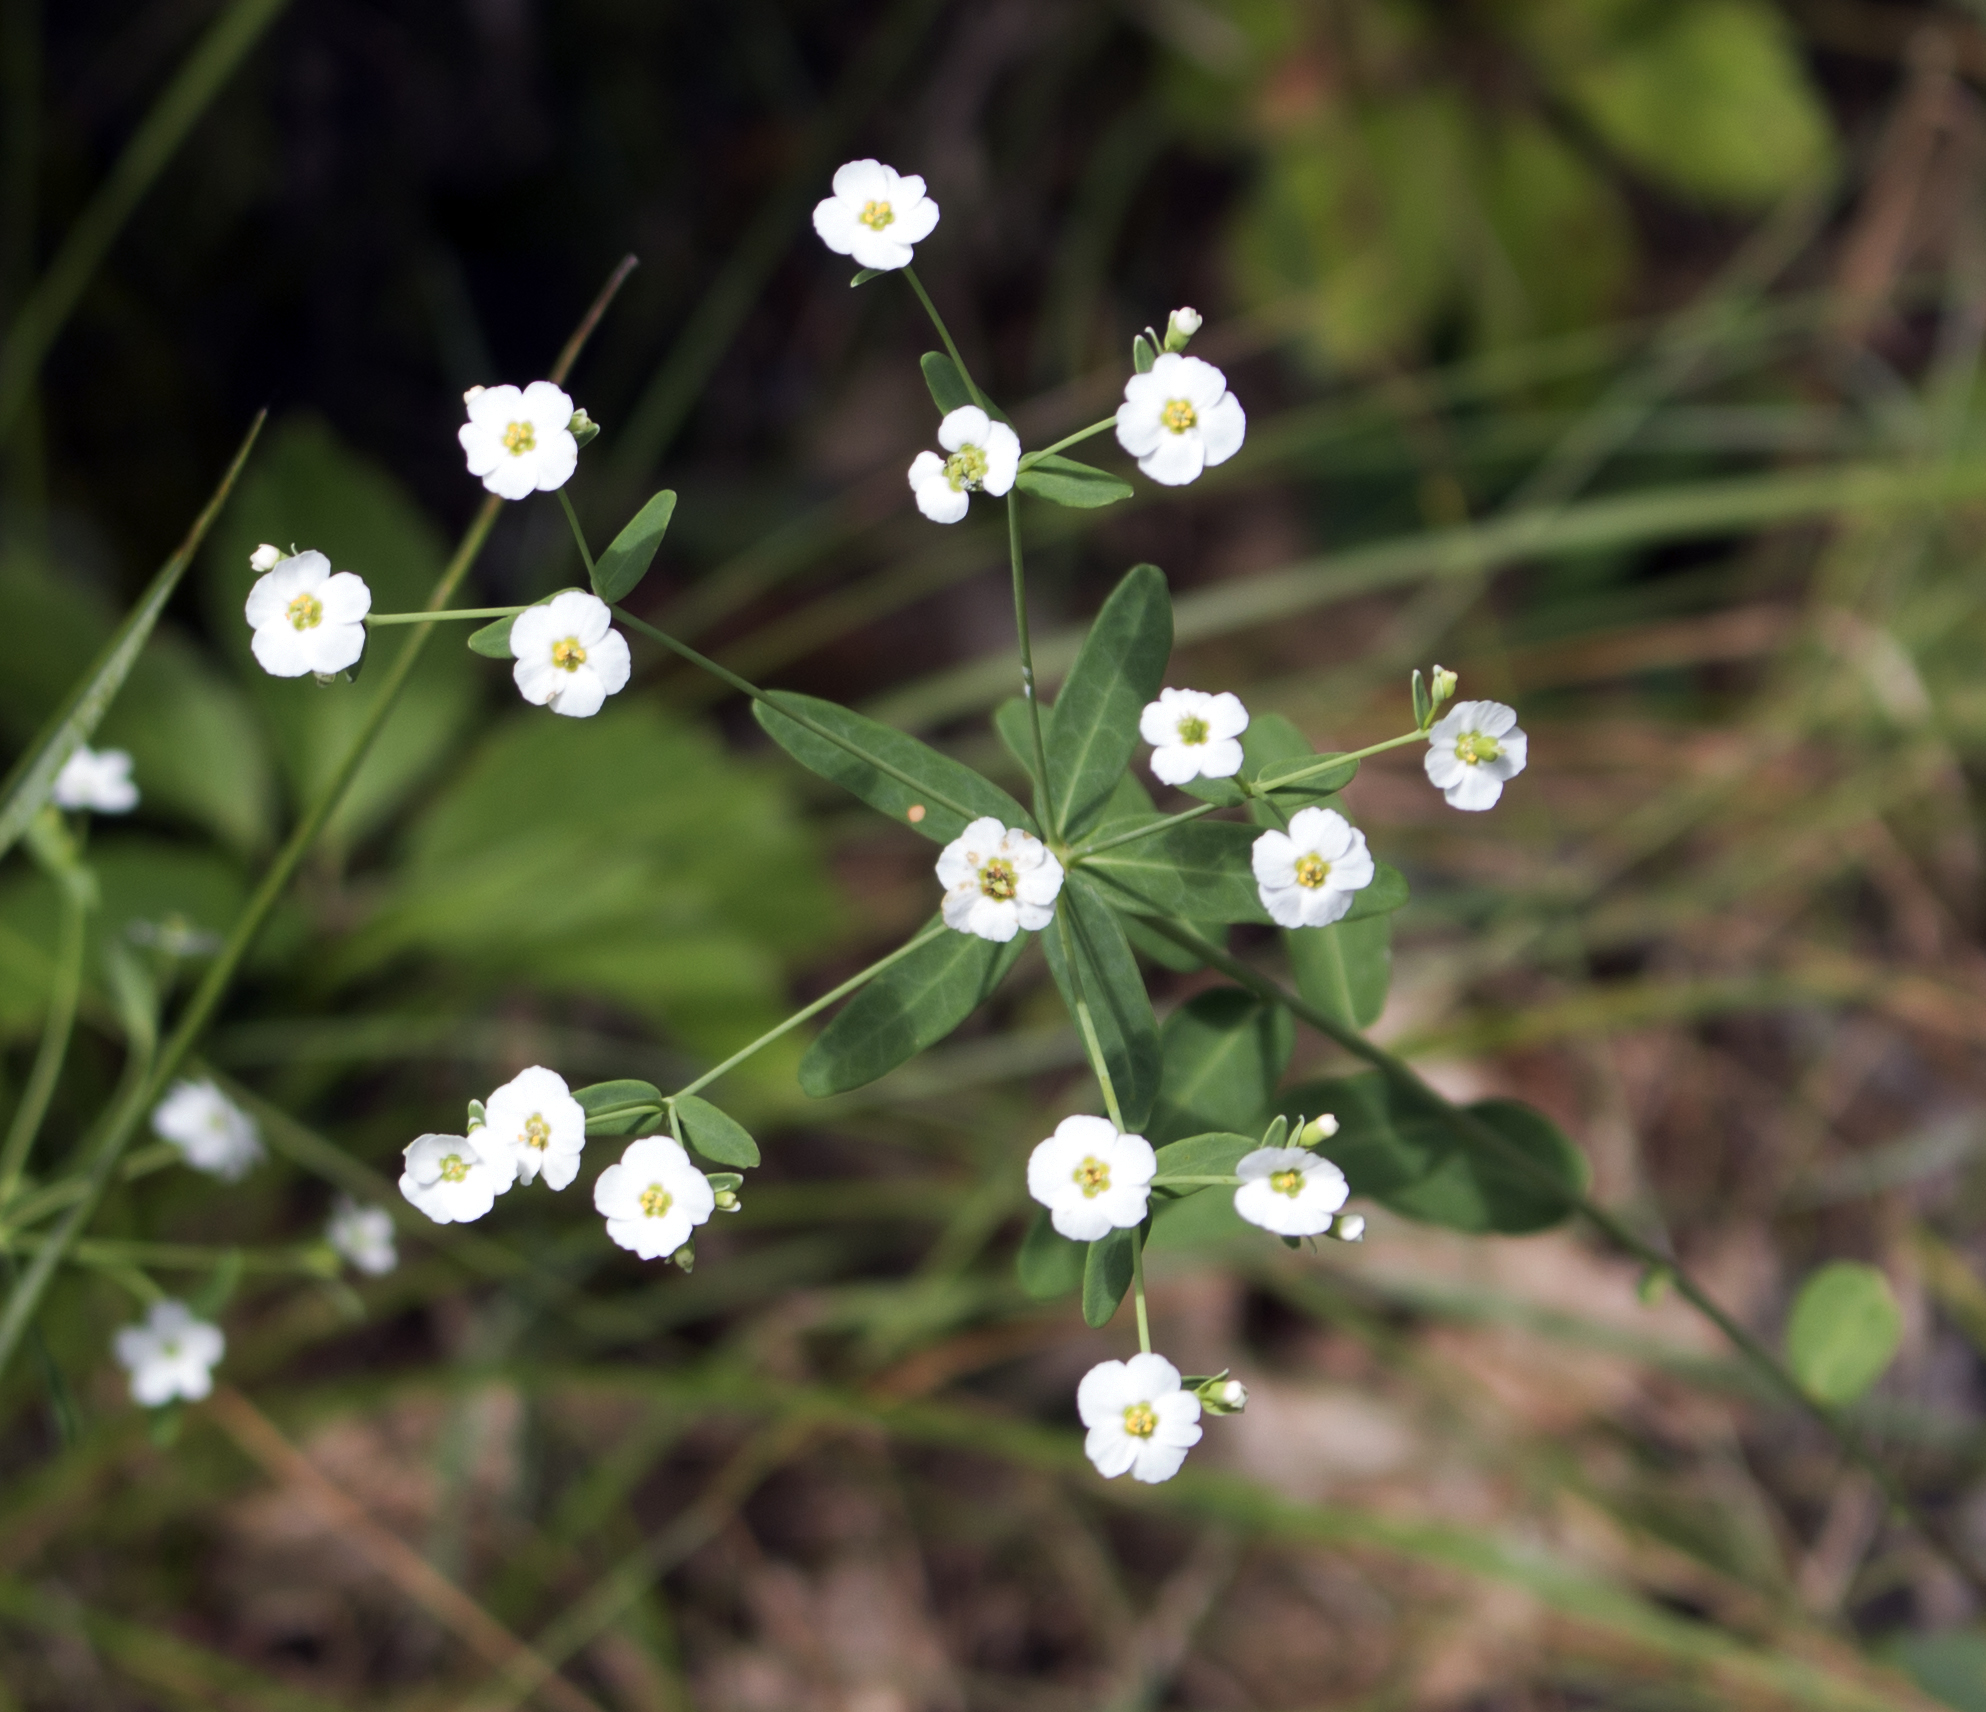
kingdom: Plantae
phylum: Tracheophyta
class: Magnoliopsida
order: Malpighiales
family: Euphorbiaceae
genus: Euphorbia
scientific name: Euphorbia corollata
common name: Flowering spurge
